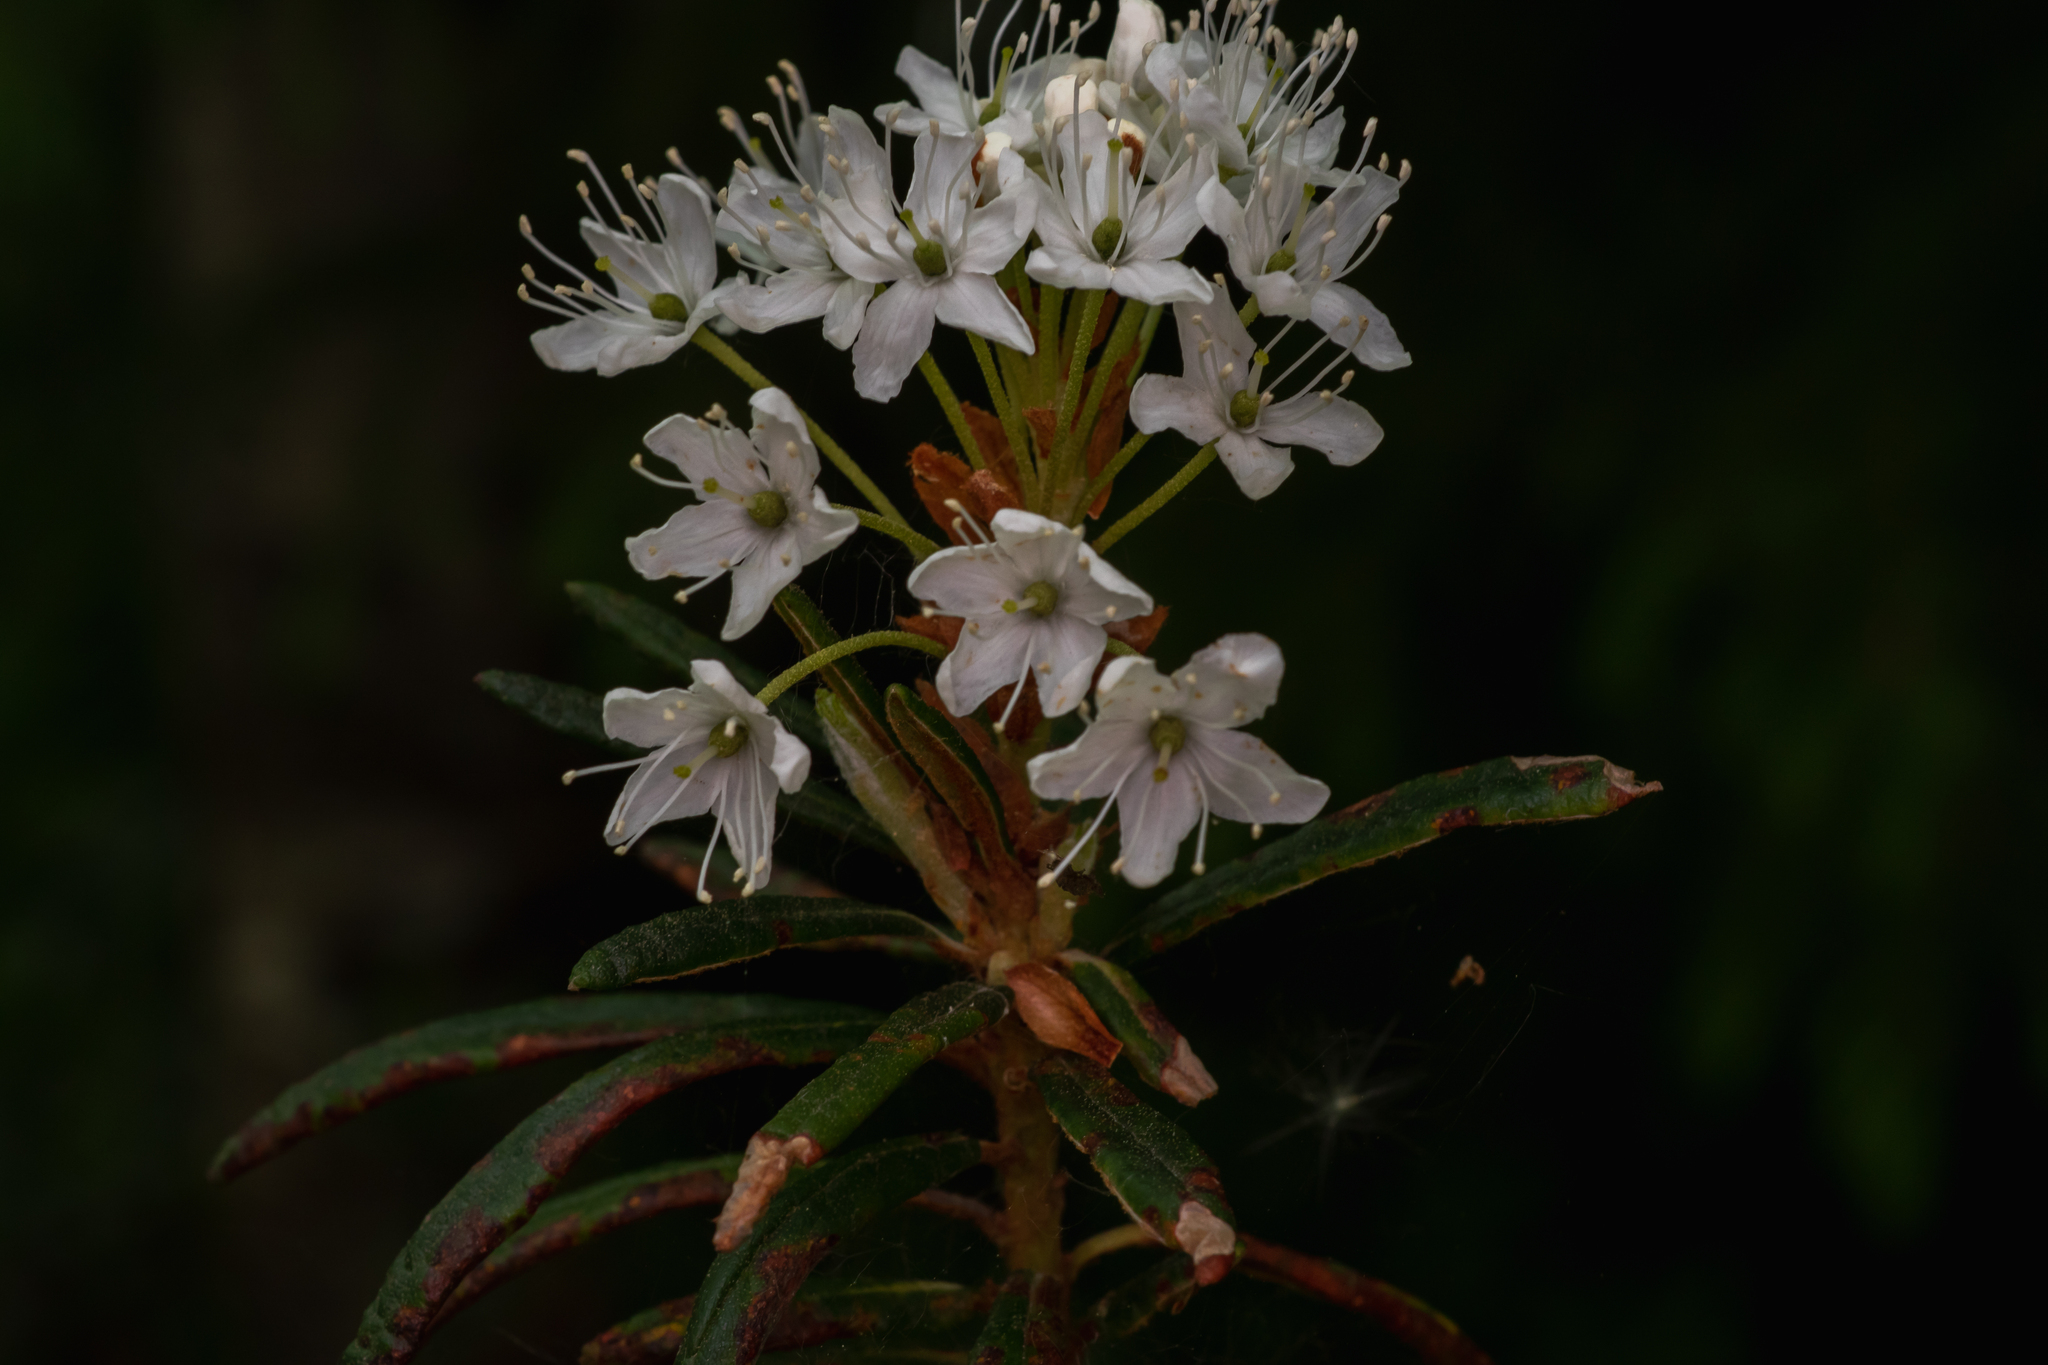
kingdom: Plantae
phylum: Tracheophyta
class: Magnoliopsida
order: Ericales
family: Ericaceae
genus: Rhododendron
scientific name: Rhododendron tomentosum
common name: Marsh labrador tea
